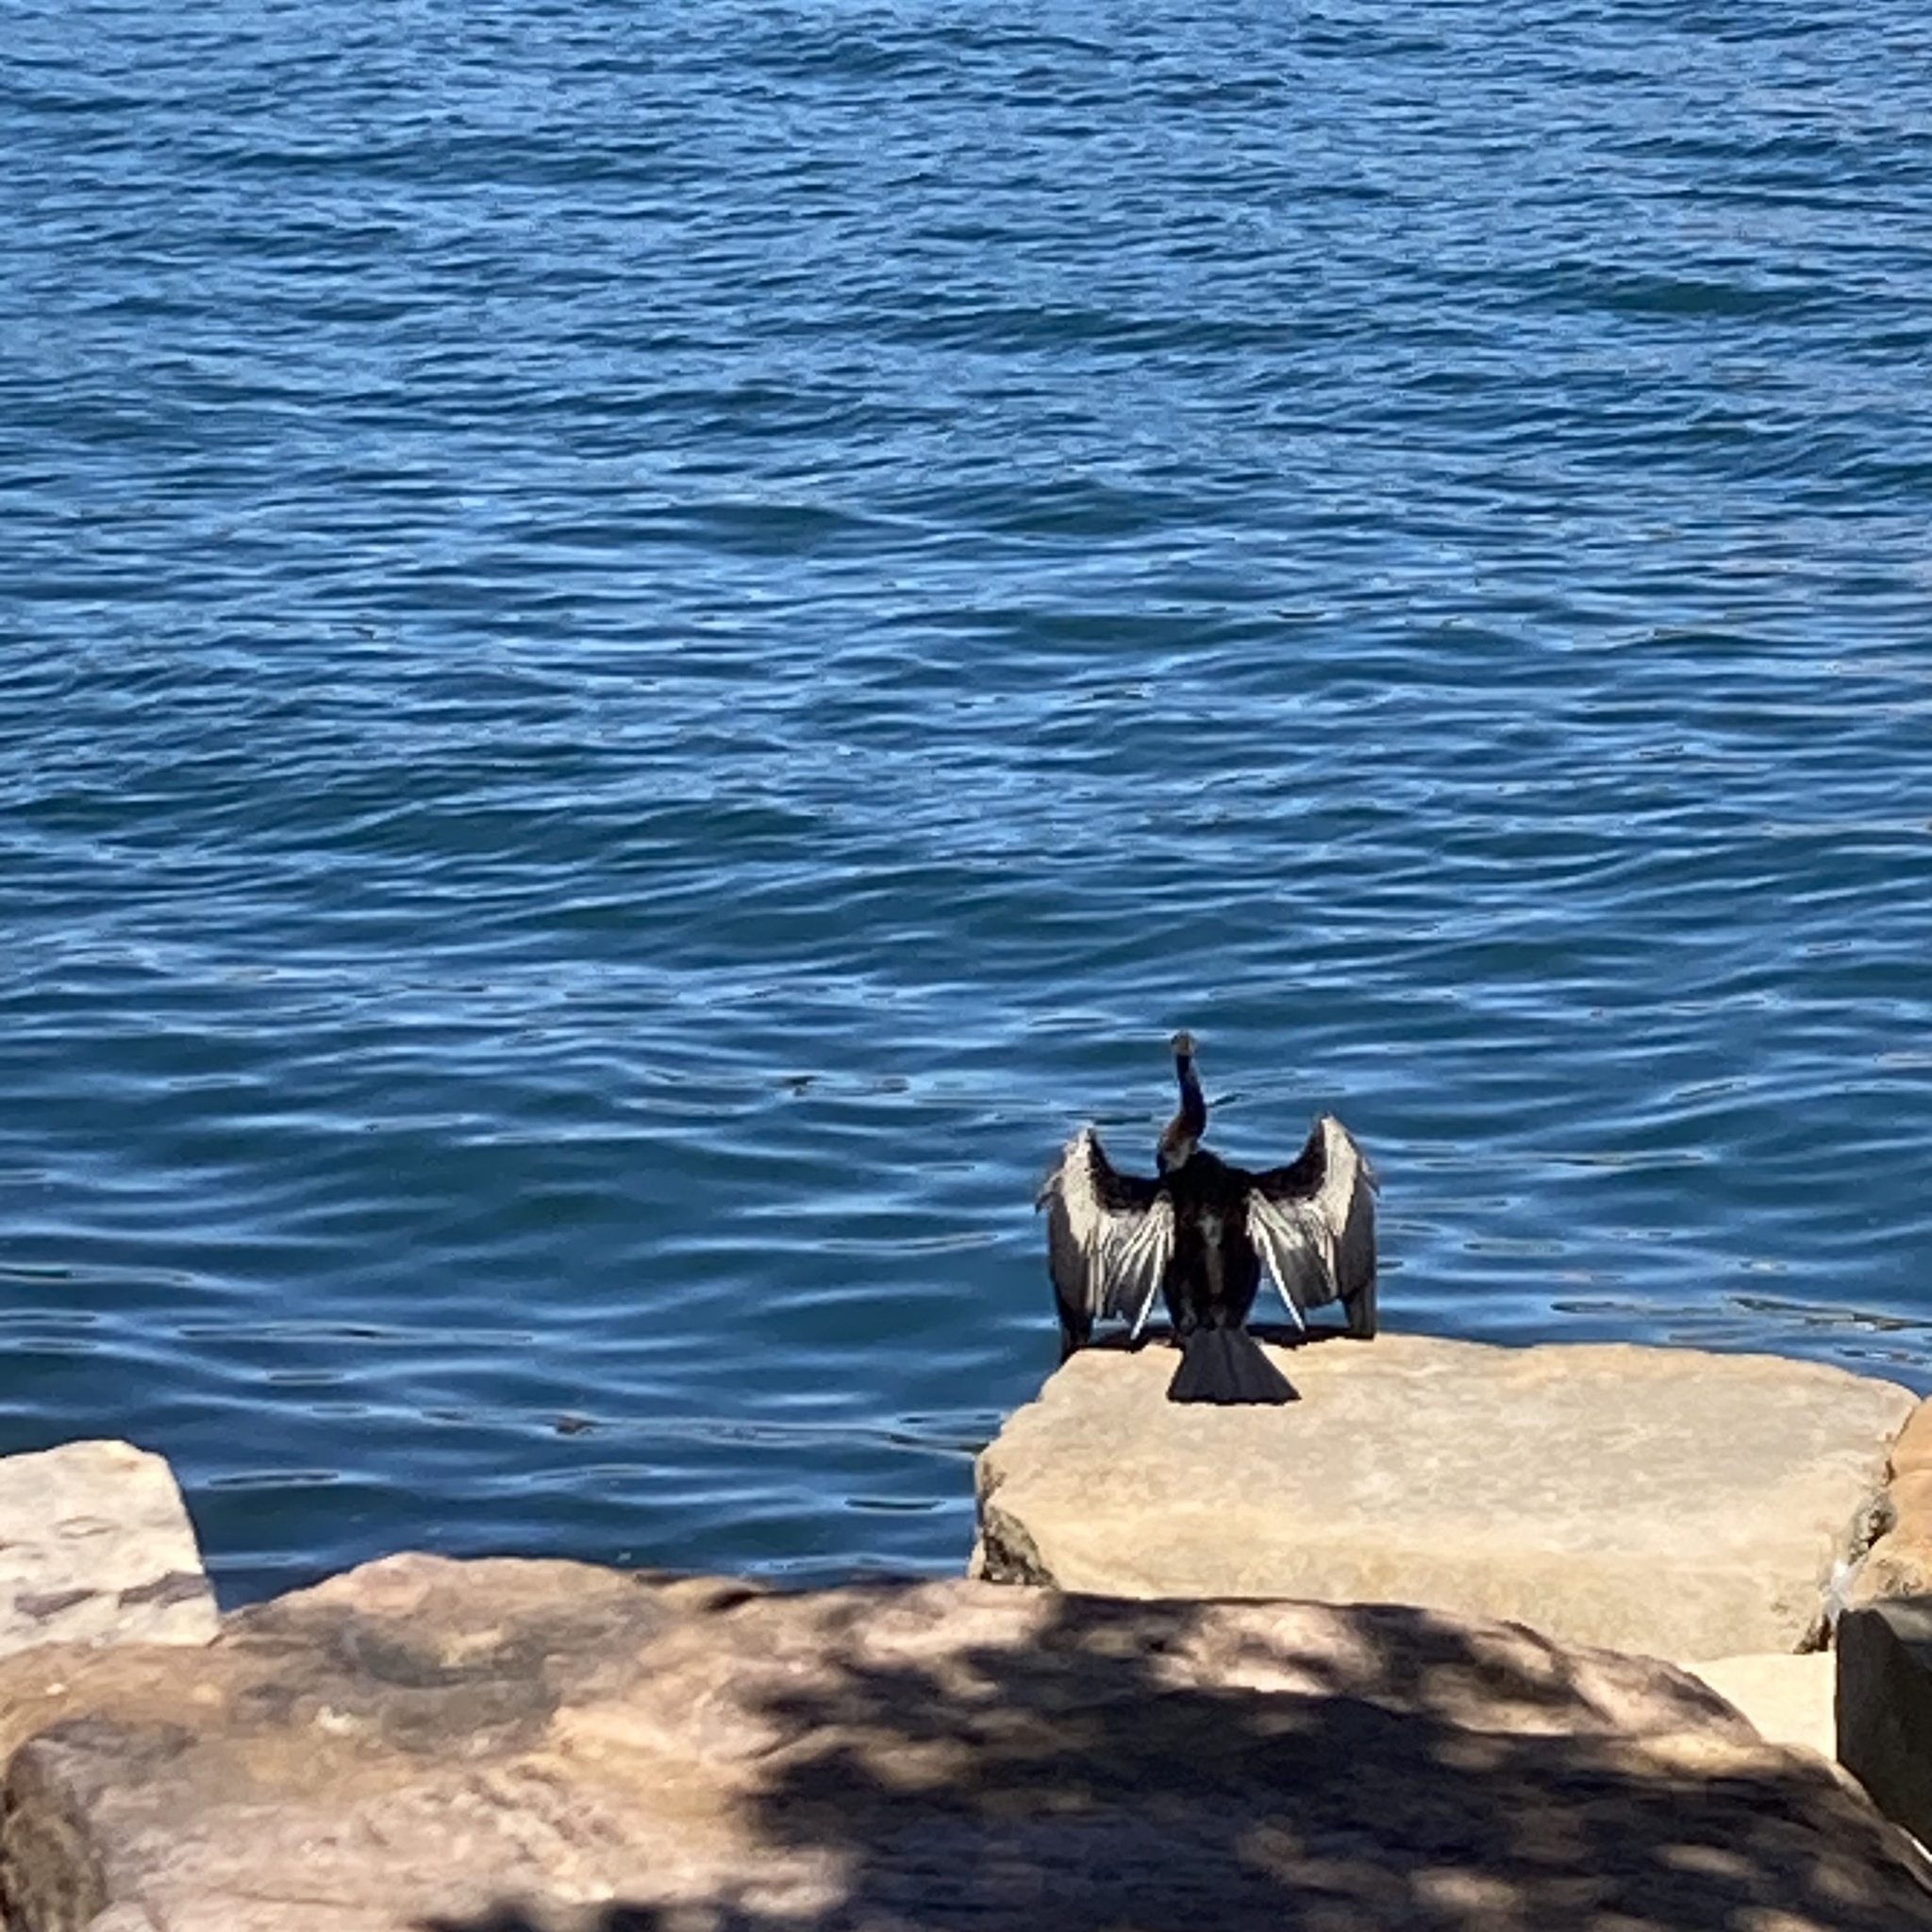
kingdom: Animalia
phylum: Chordata
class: Aves
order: Suliformes
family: Anhingidae
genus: Anhinga
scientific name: Anhinga novaehollandiae
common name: Australasian darter
